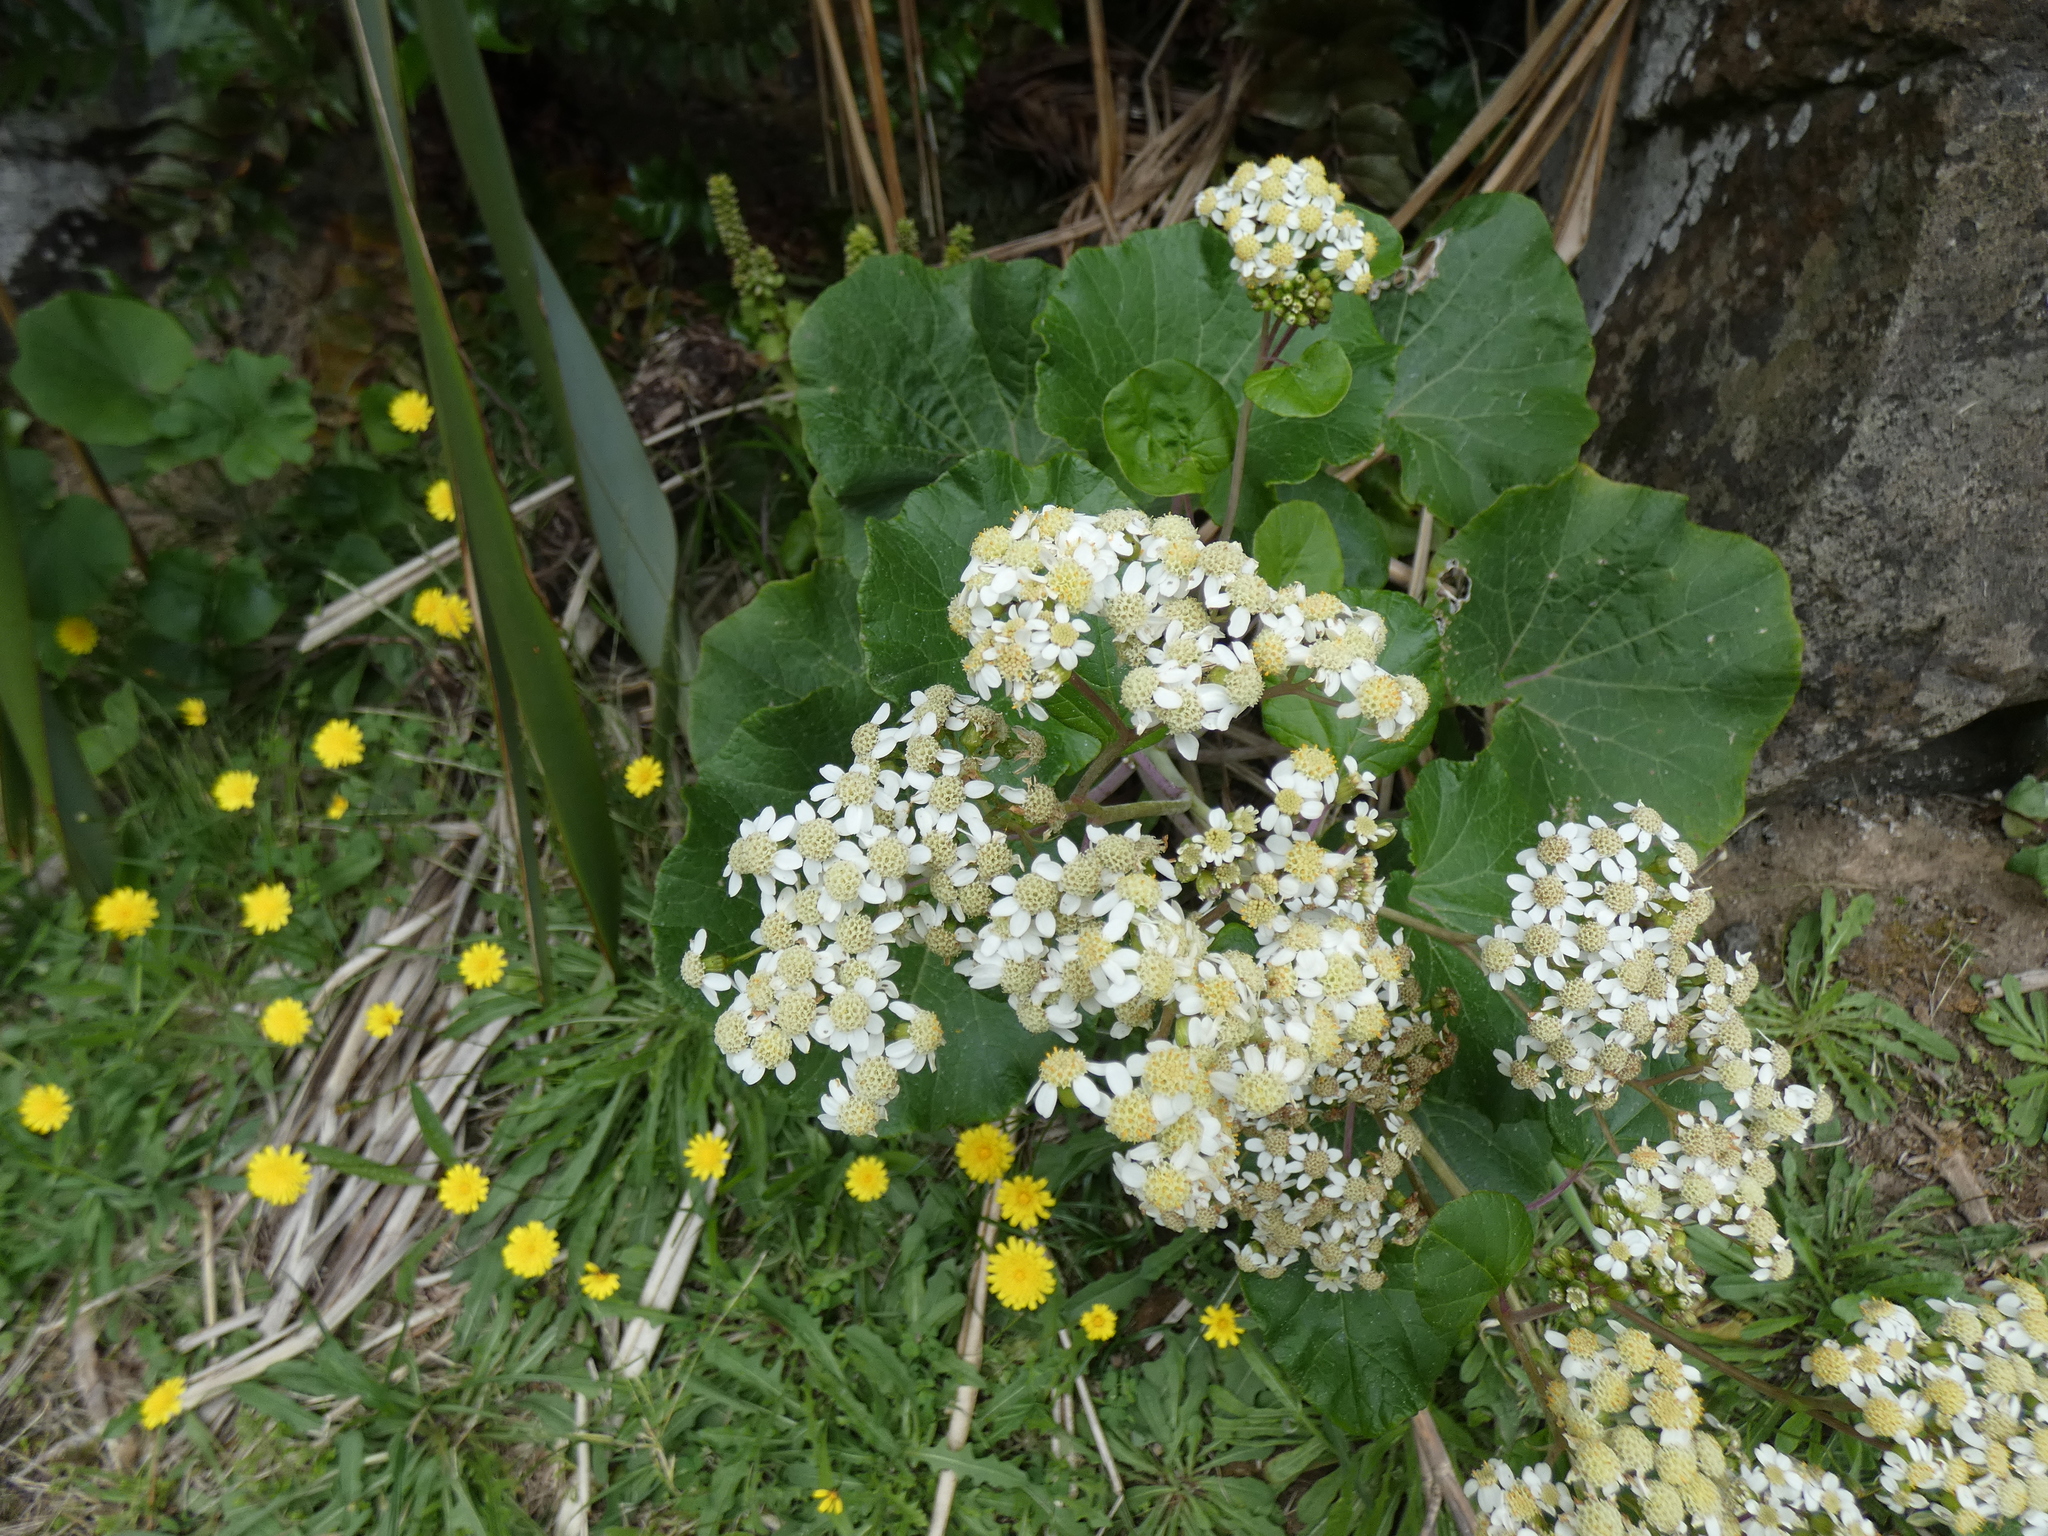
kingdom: Plantae
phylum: Tracheophyta
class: Magnoliopsida
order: Asterales
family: Asteraceae
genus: Pericallis
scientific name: Pericallis malvifolia
